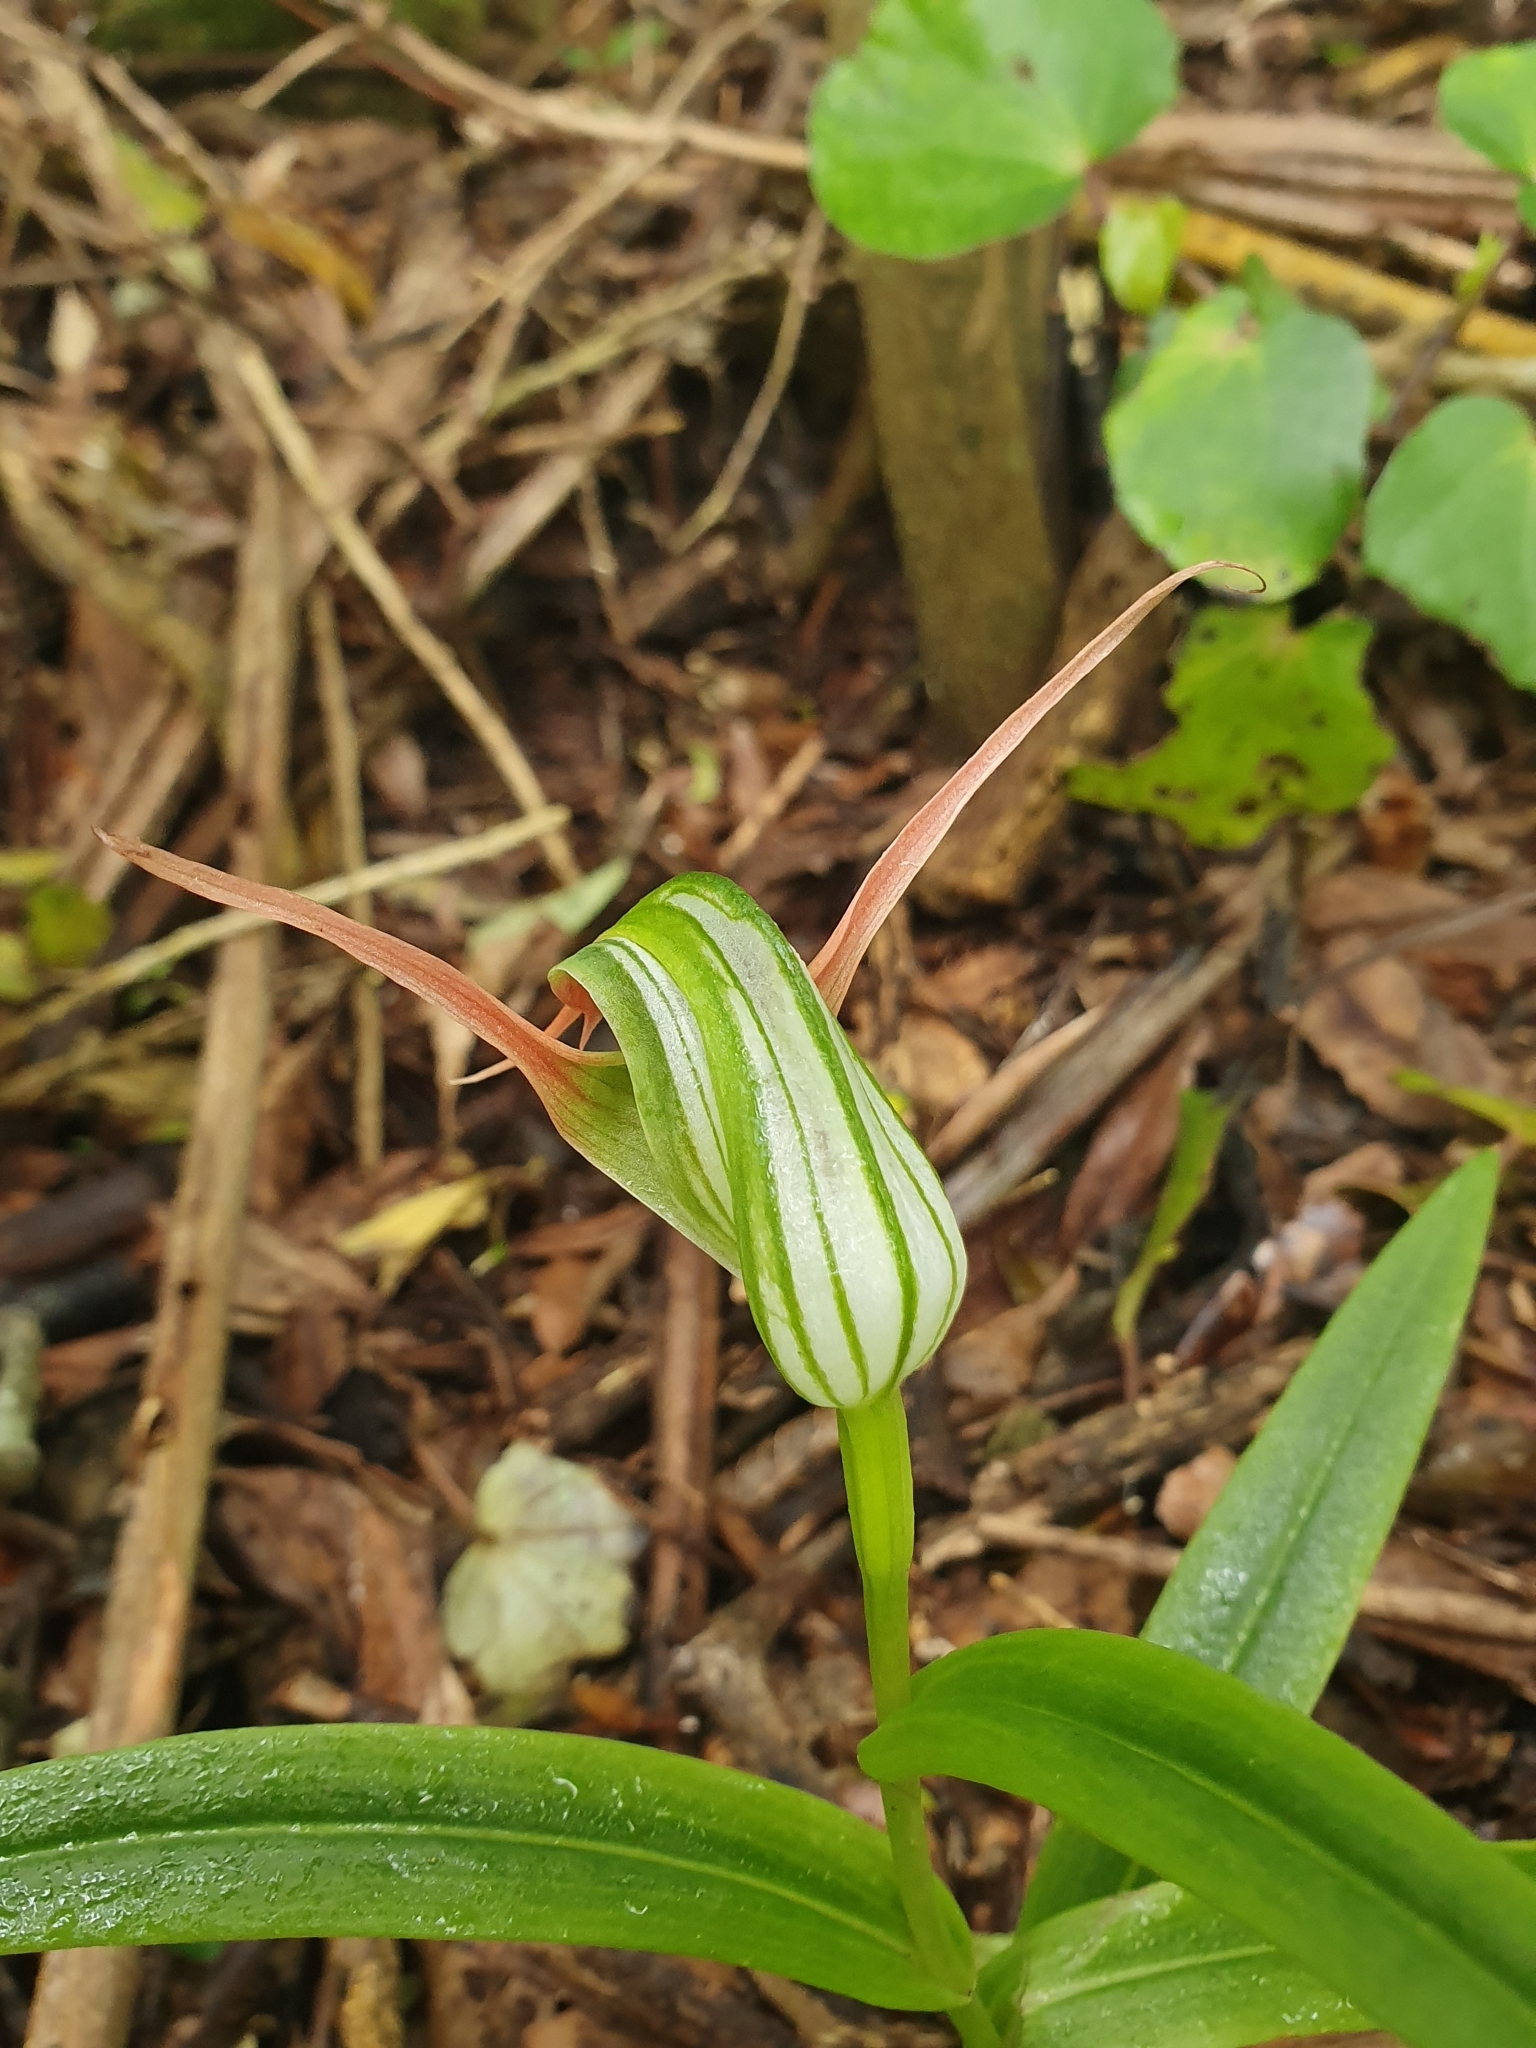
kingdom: Plantae
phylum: Tracheophyta
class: Liliopsida
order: Asparagales
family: Orchidaceae
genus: Pterostylis
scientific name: Pterostylis banksii
